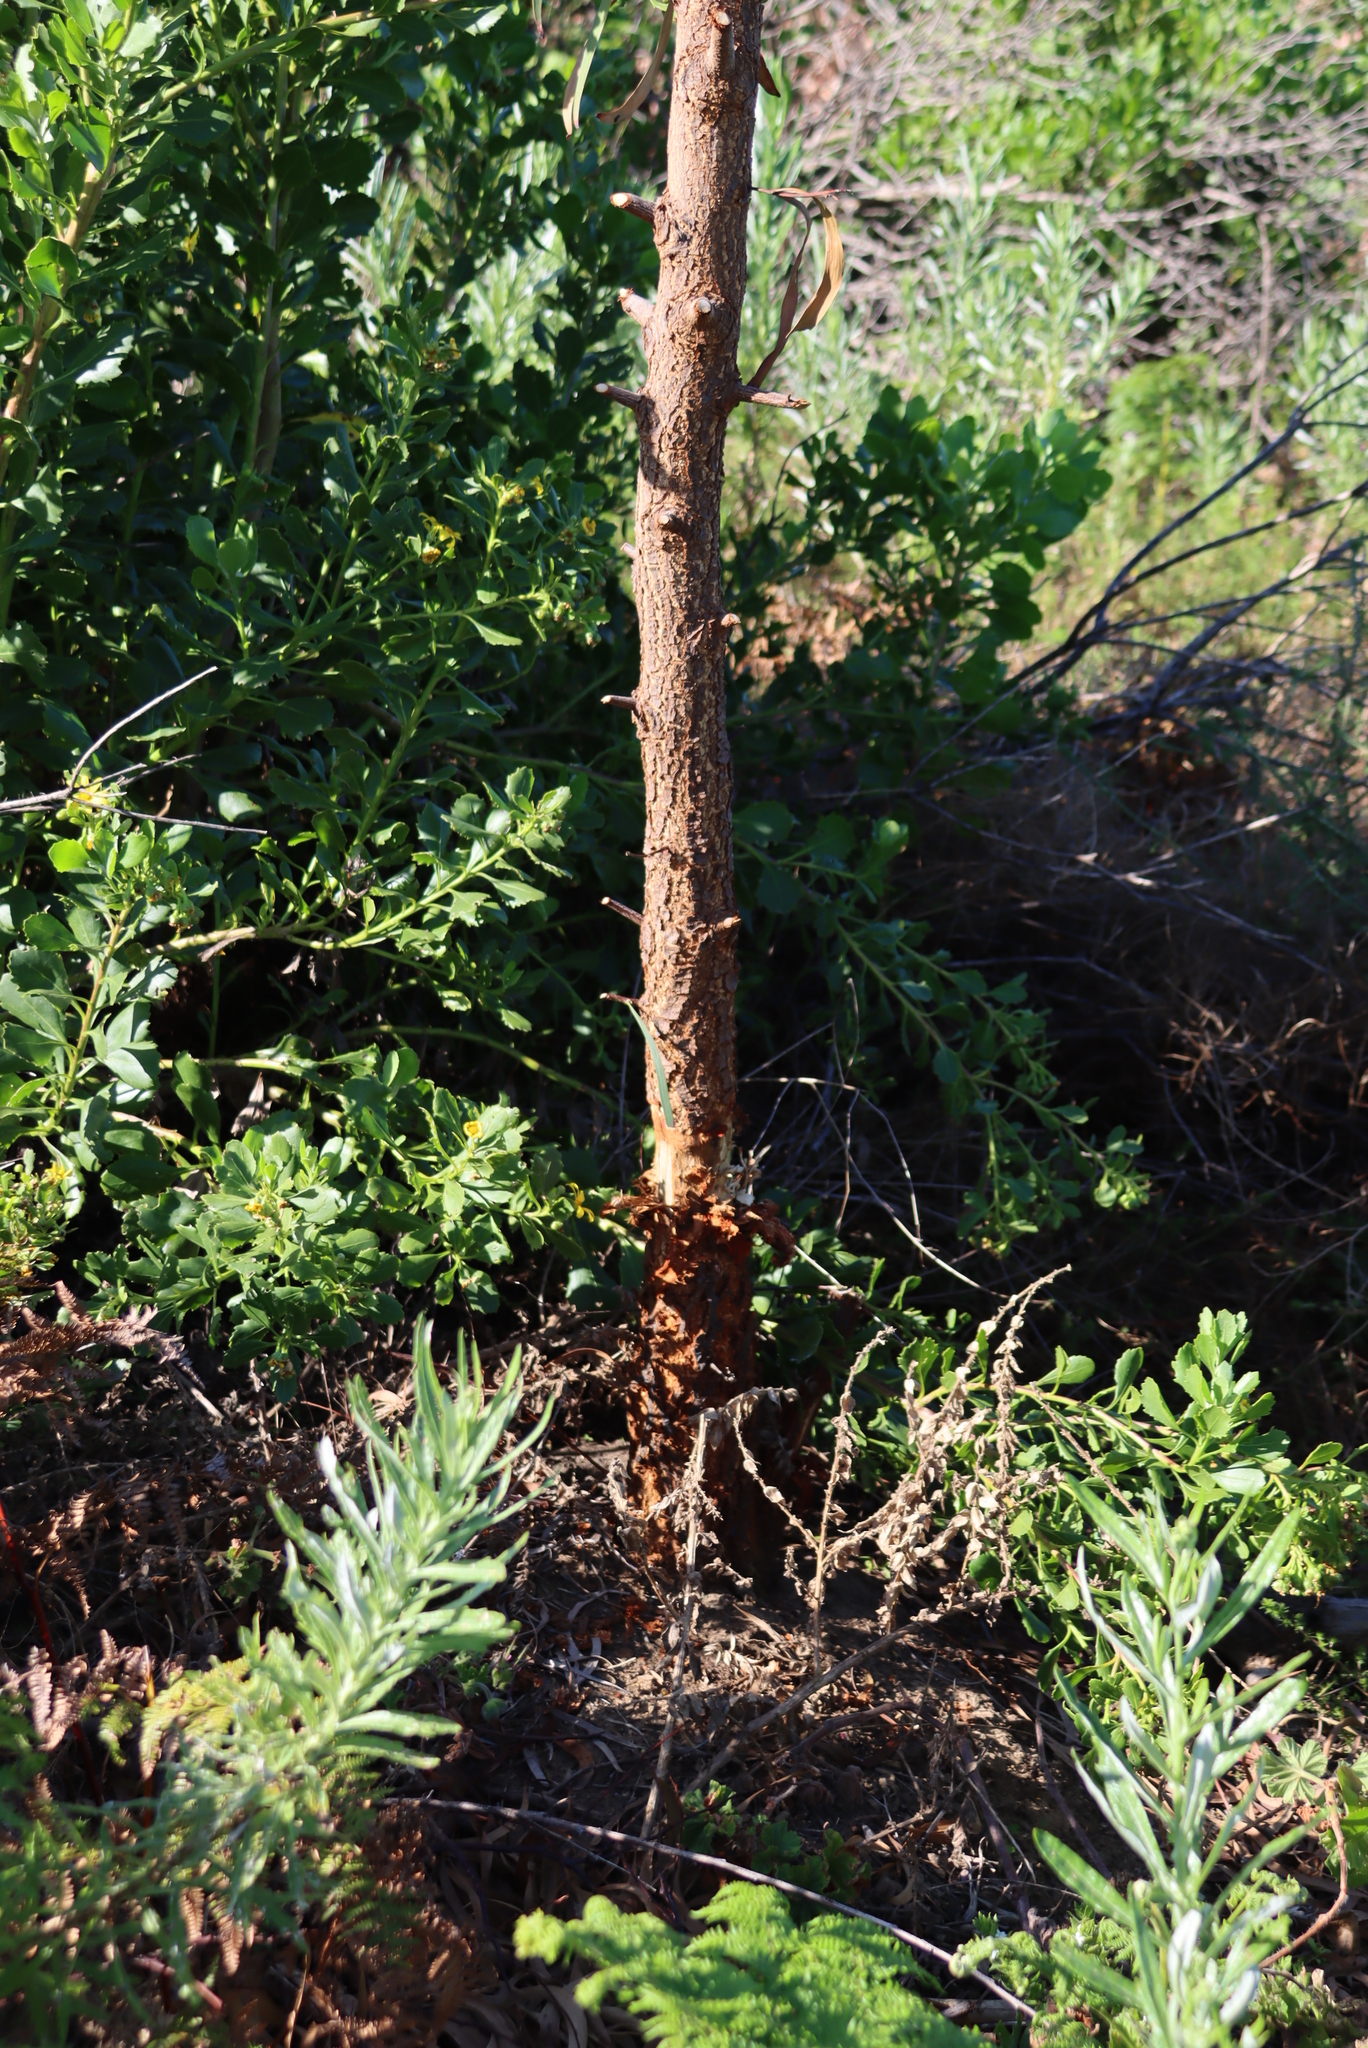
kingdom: Plantae
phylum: Tracheophyta
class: Magnoliopsida
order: Fabales
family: Fabaceae
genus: Acacia
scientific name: Acacia pycnantha
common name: Golden wattle
